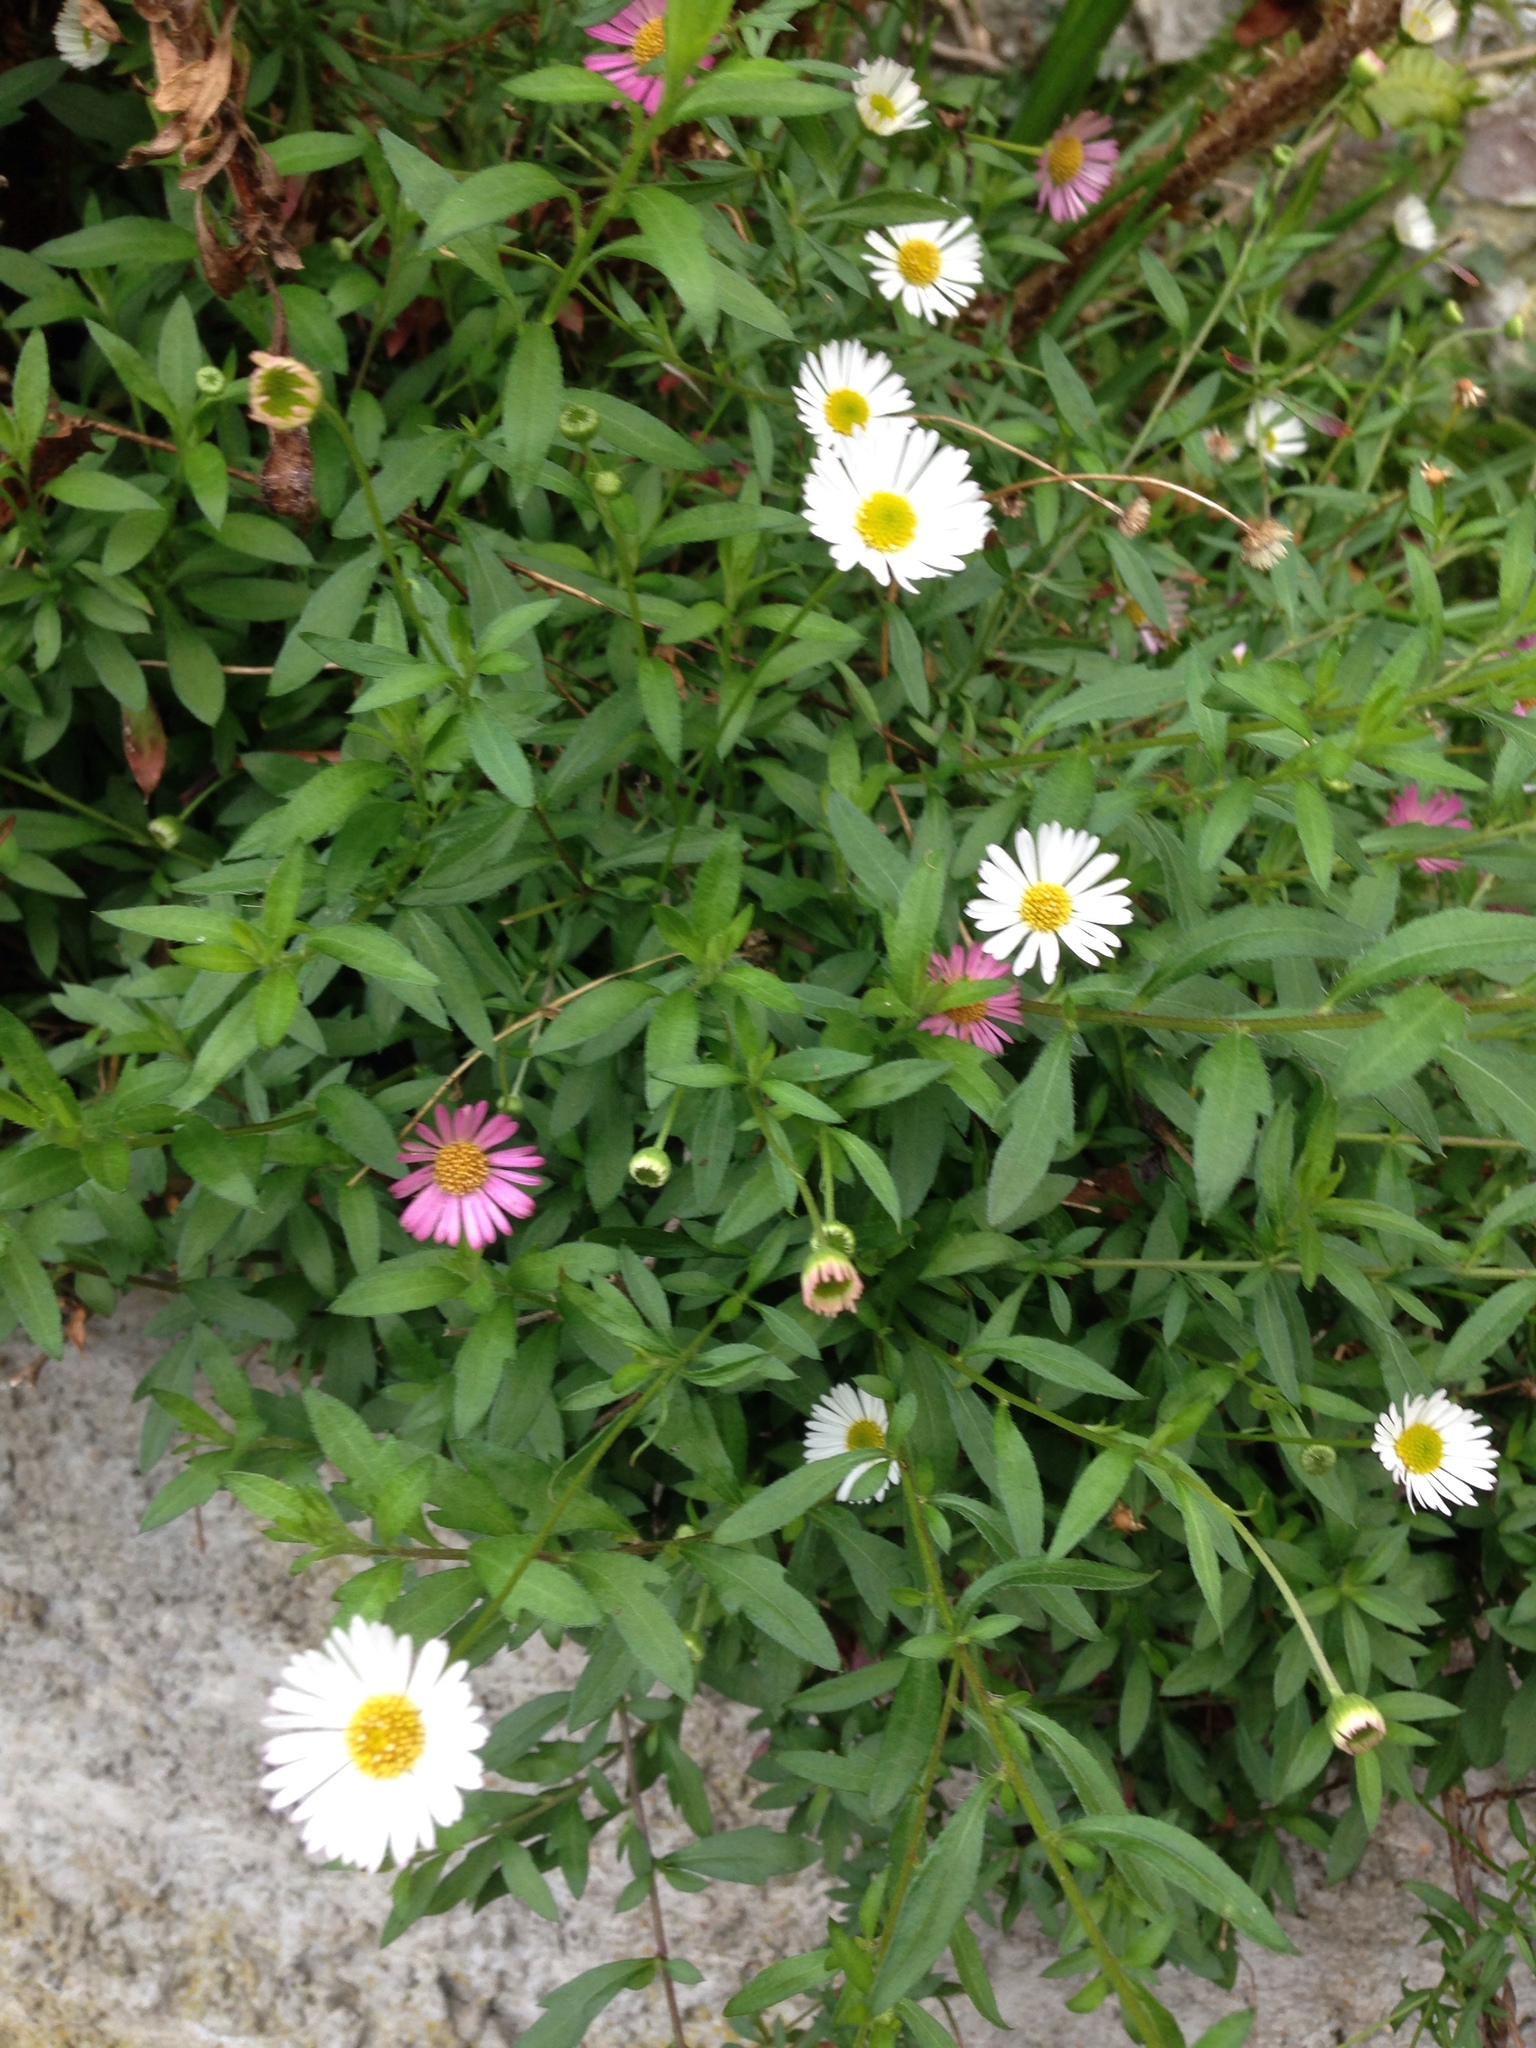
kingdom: Plantae
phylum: Tracheophyta
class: Magnoliopsida
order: Asterales
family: Asteraceae
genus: Erigeron
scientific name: Erigeron karvinskianus
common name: Mexican fleabane
